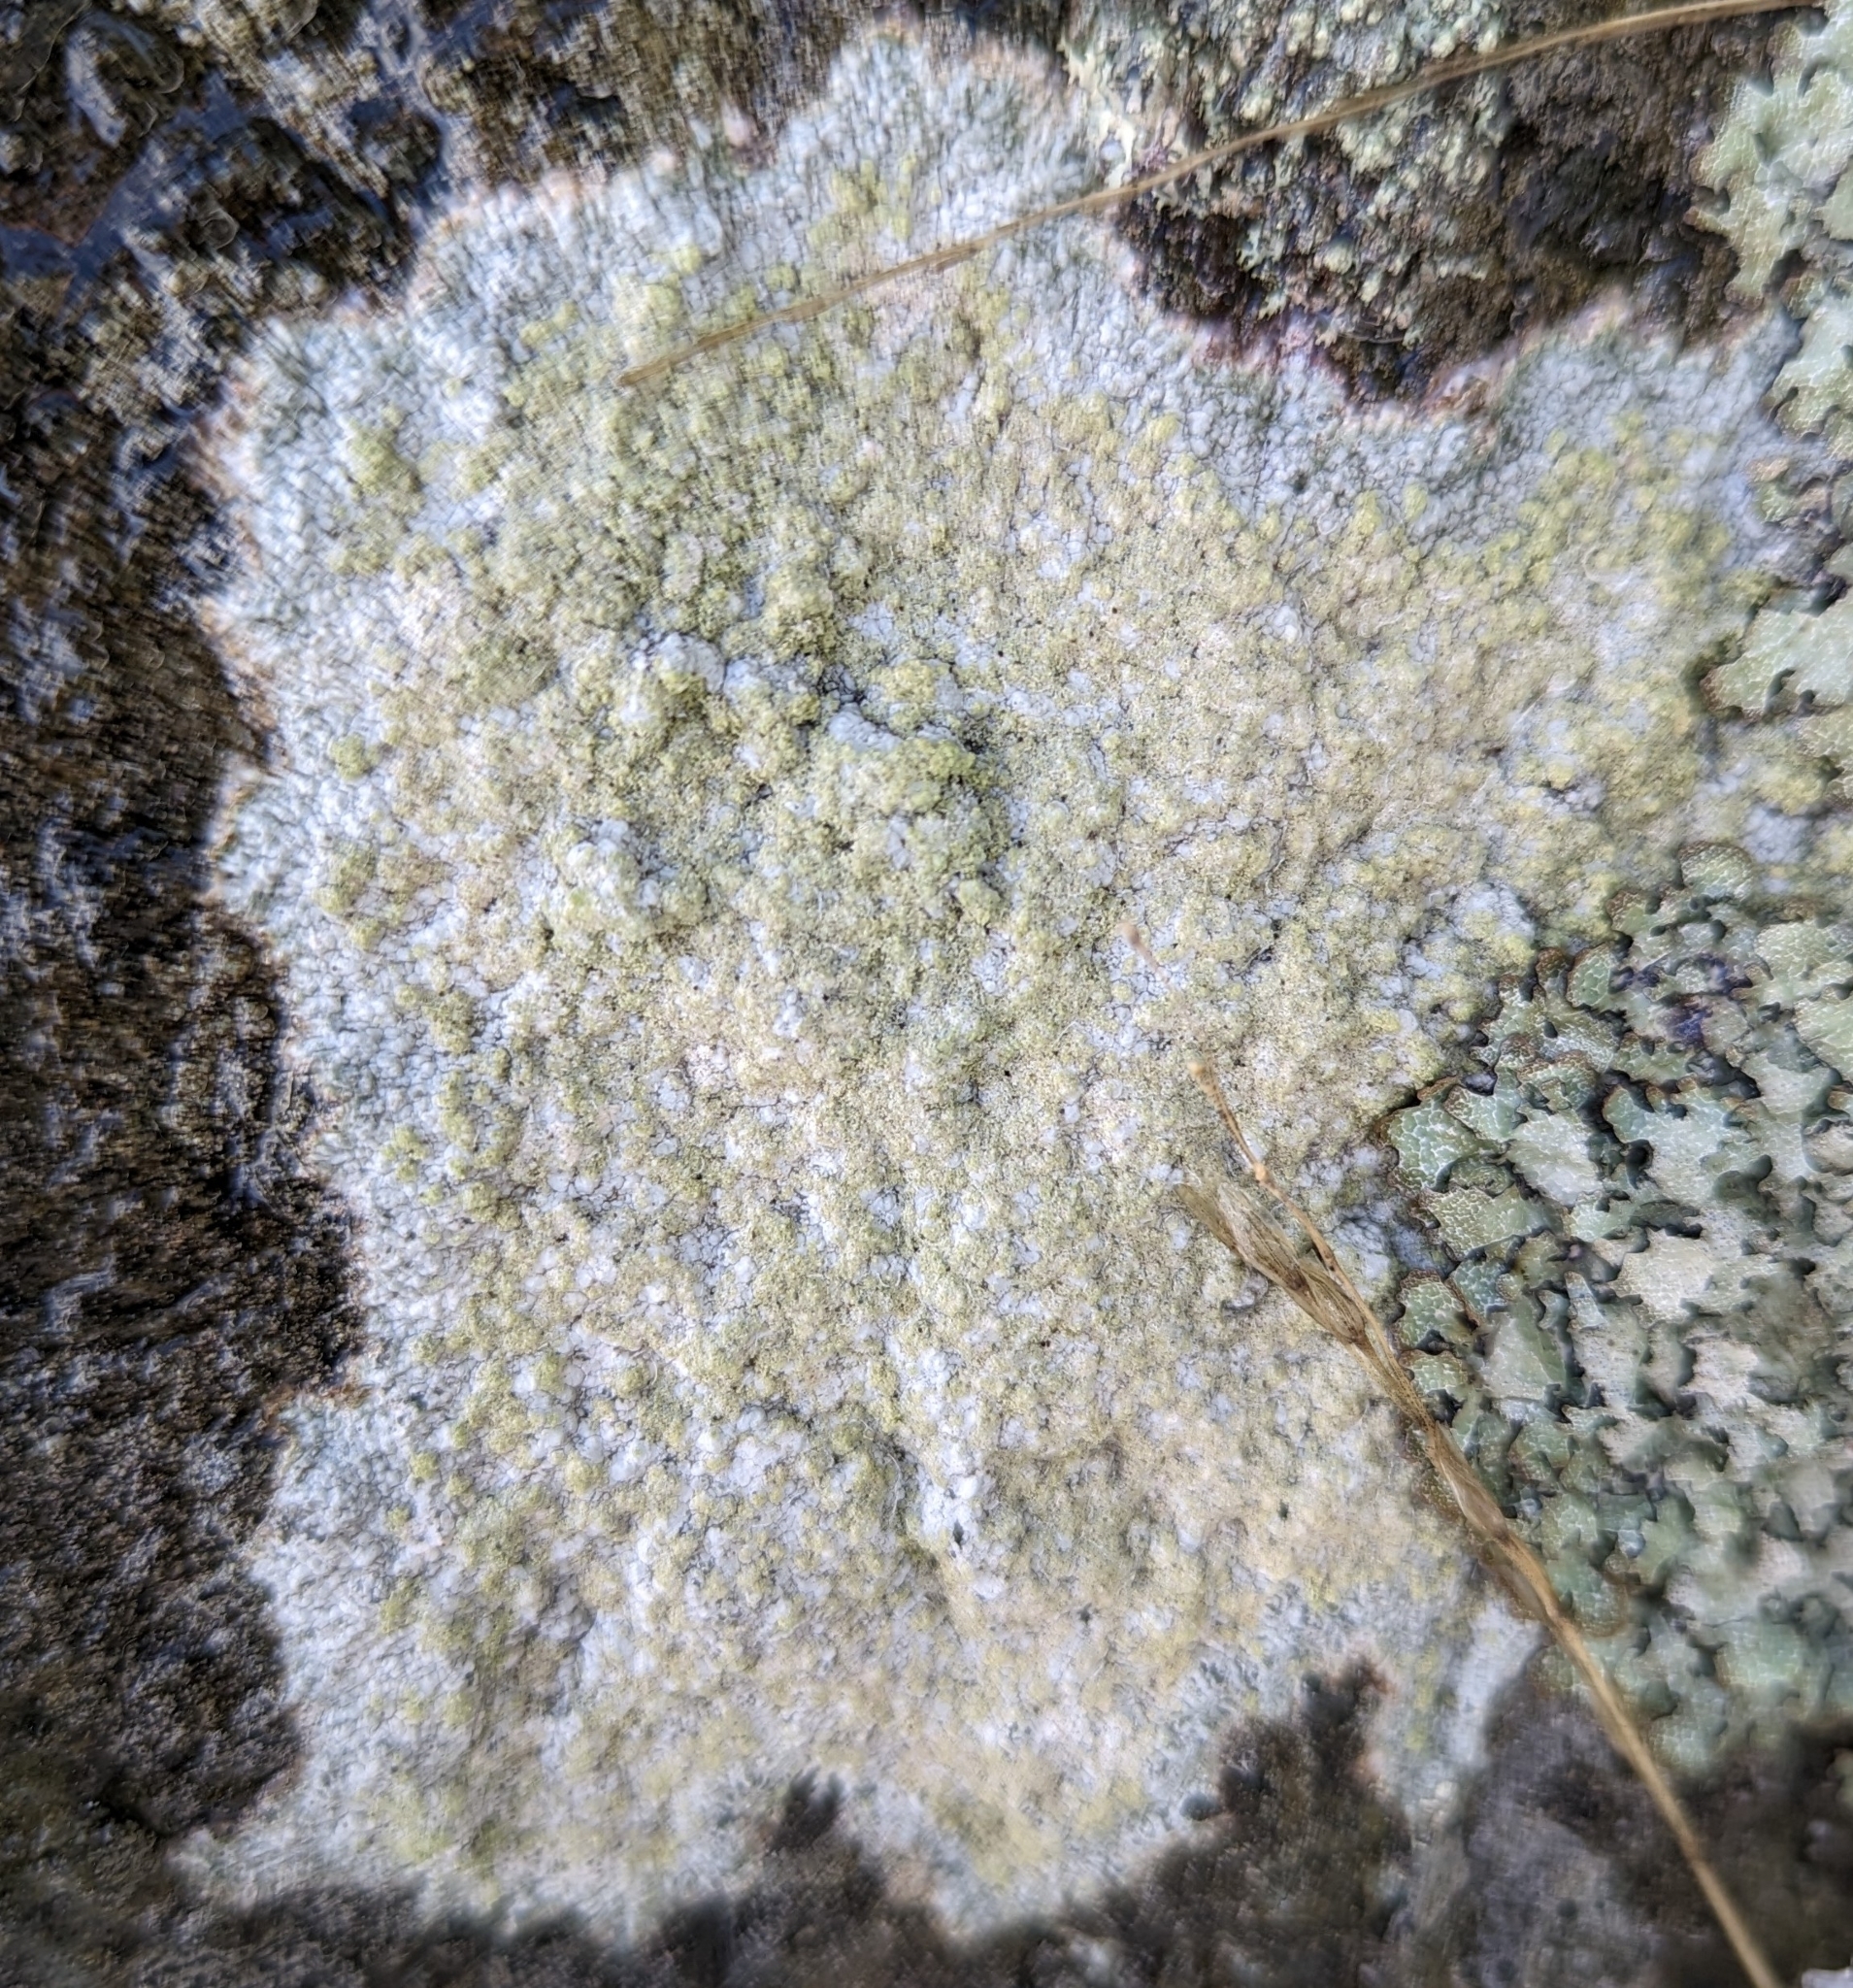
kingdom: Fungi
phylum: Ascomycota
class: Lecanoromycetes
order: Ostropales
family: Phlyctidaceae
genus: Phlyctis
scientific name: Phlyctis argena
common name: Whitewash lichen
